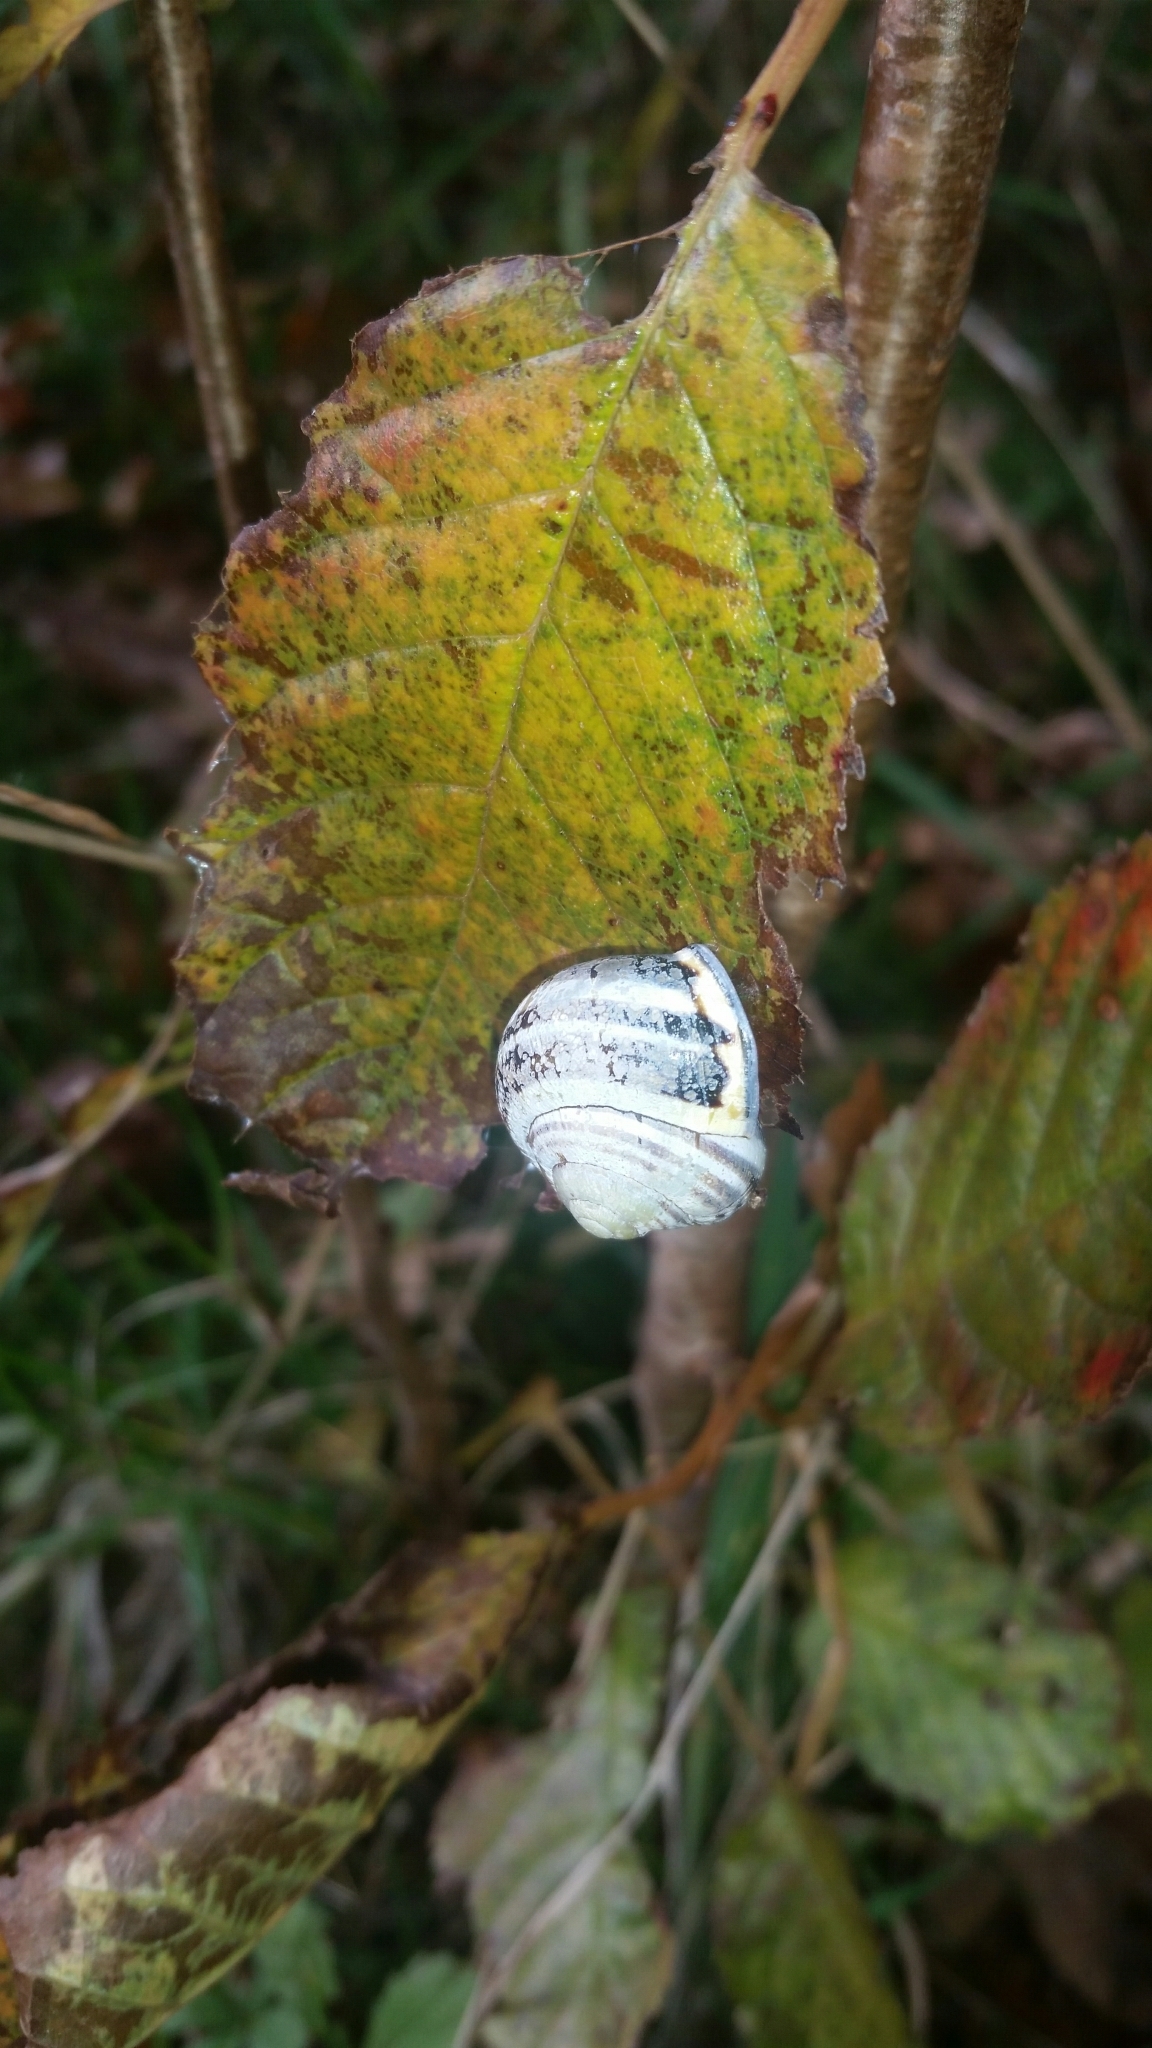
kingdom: Animalia
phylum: Mollusca
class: Gastropoda
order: Stylommatophora
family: Helicidae
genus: Cepaea
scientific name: Cepaea nemoralis
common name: Grovesnail
